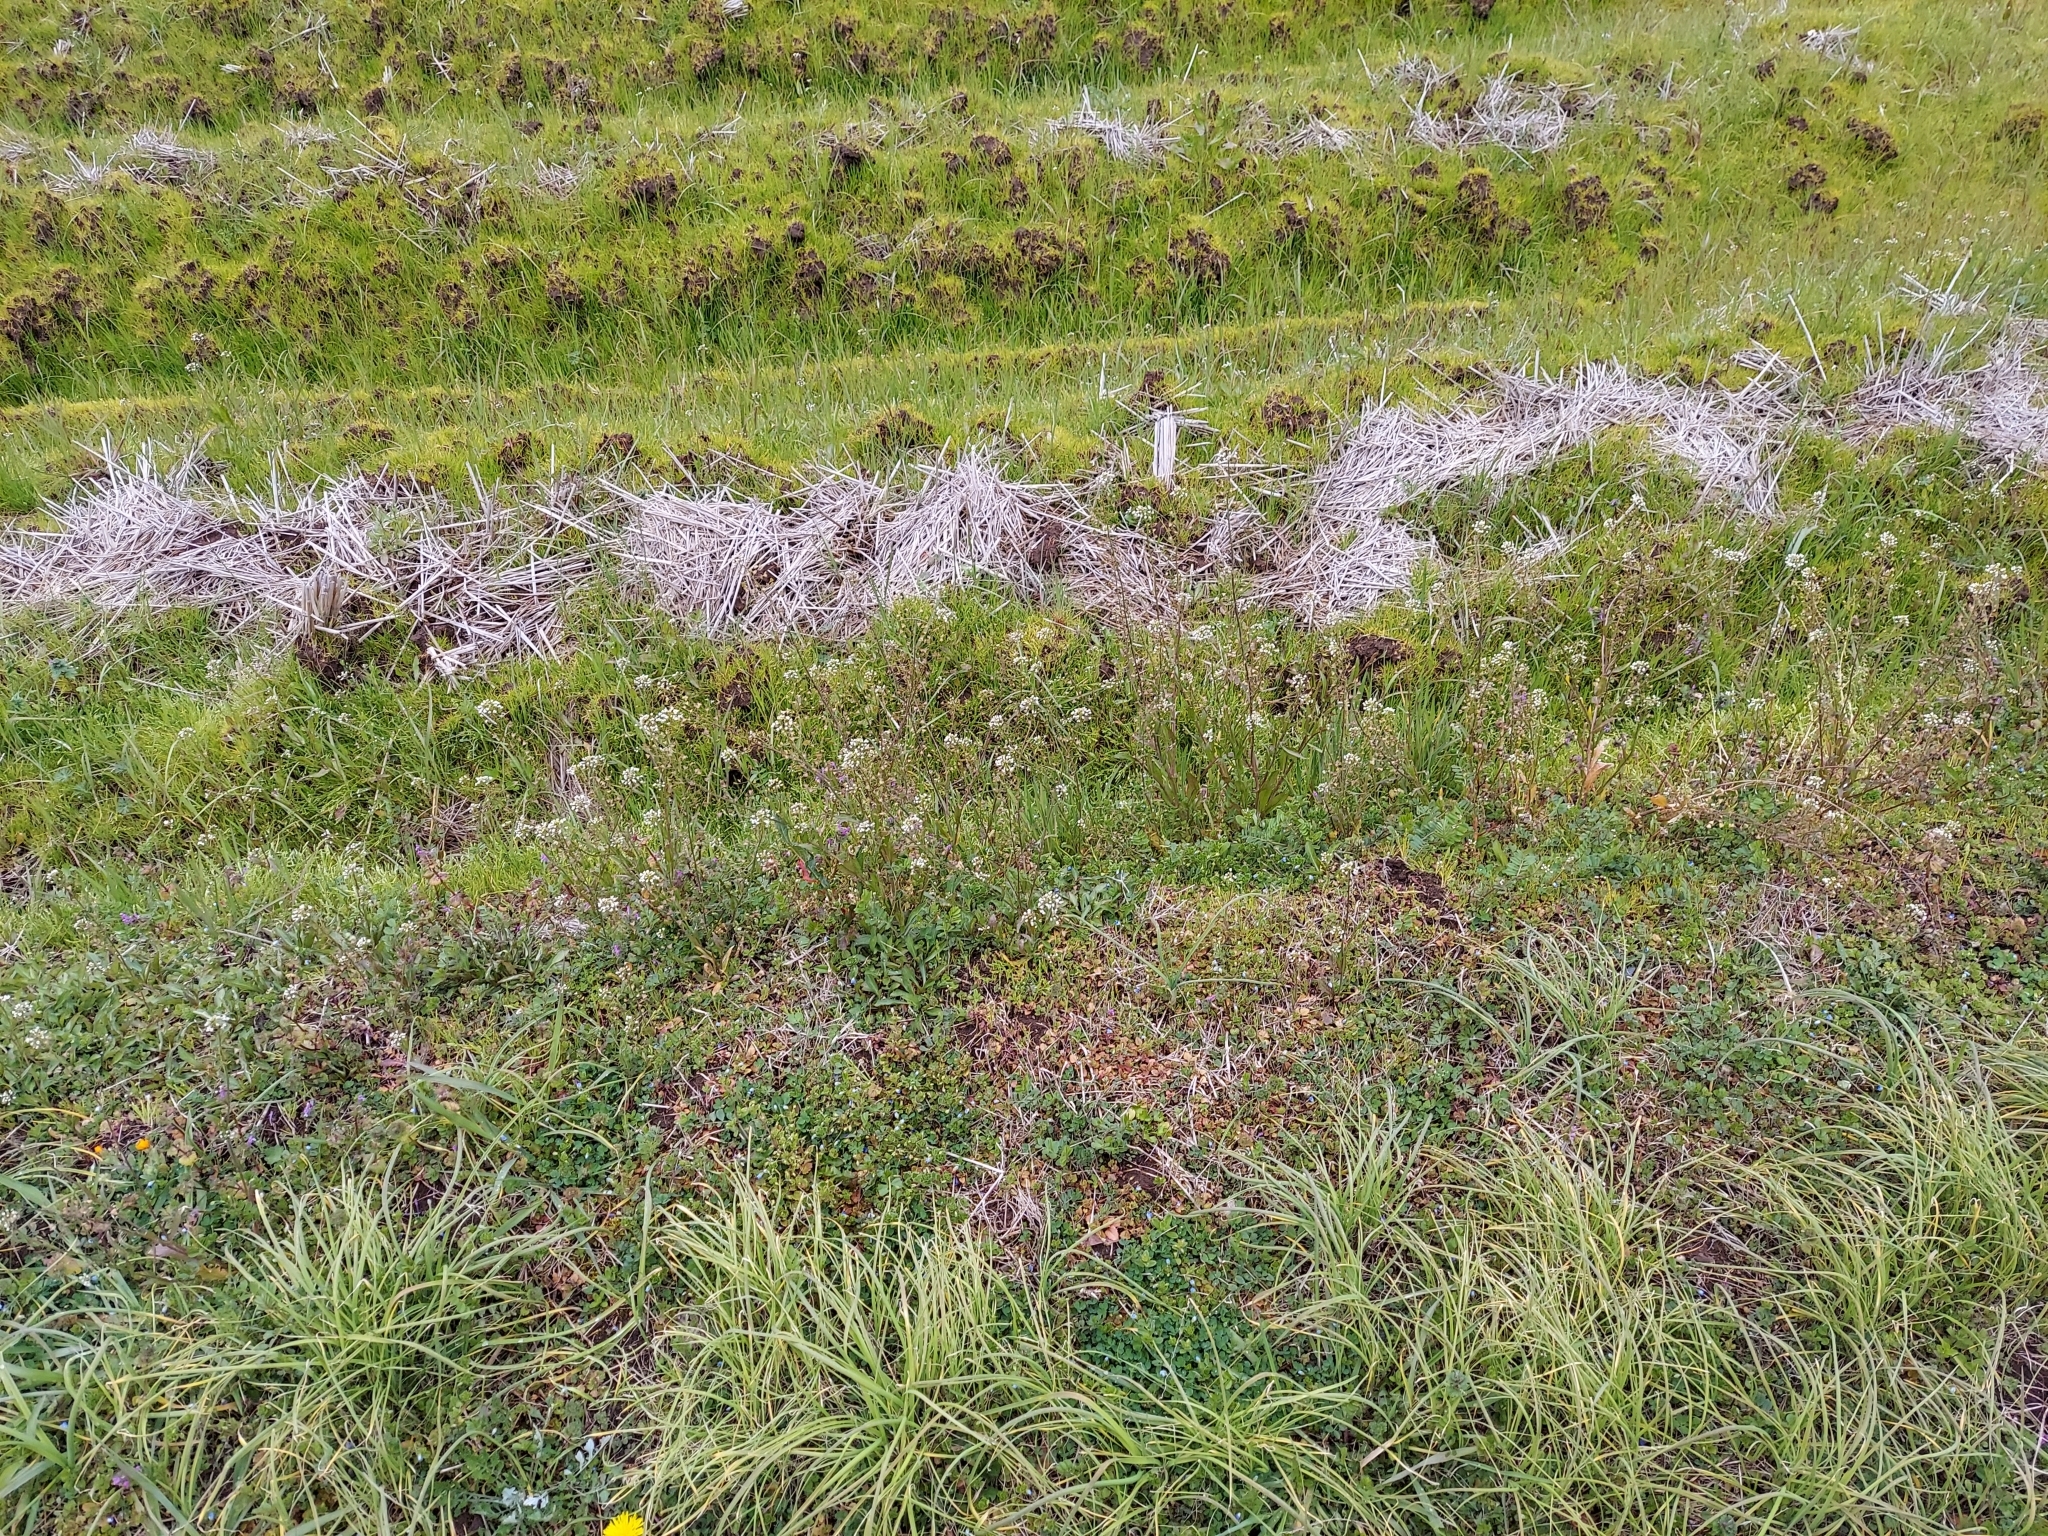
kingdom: Plantae
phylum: Tracheophyta
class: Magnoliopsida
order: Brassicales
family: Brassicaceae
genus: Capsella
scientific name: Capsella bursa-pastoris
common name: Shepherd's purse
